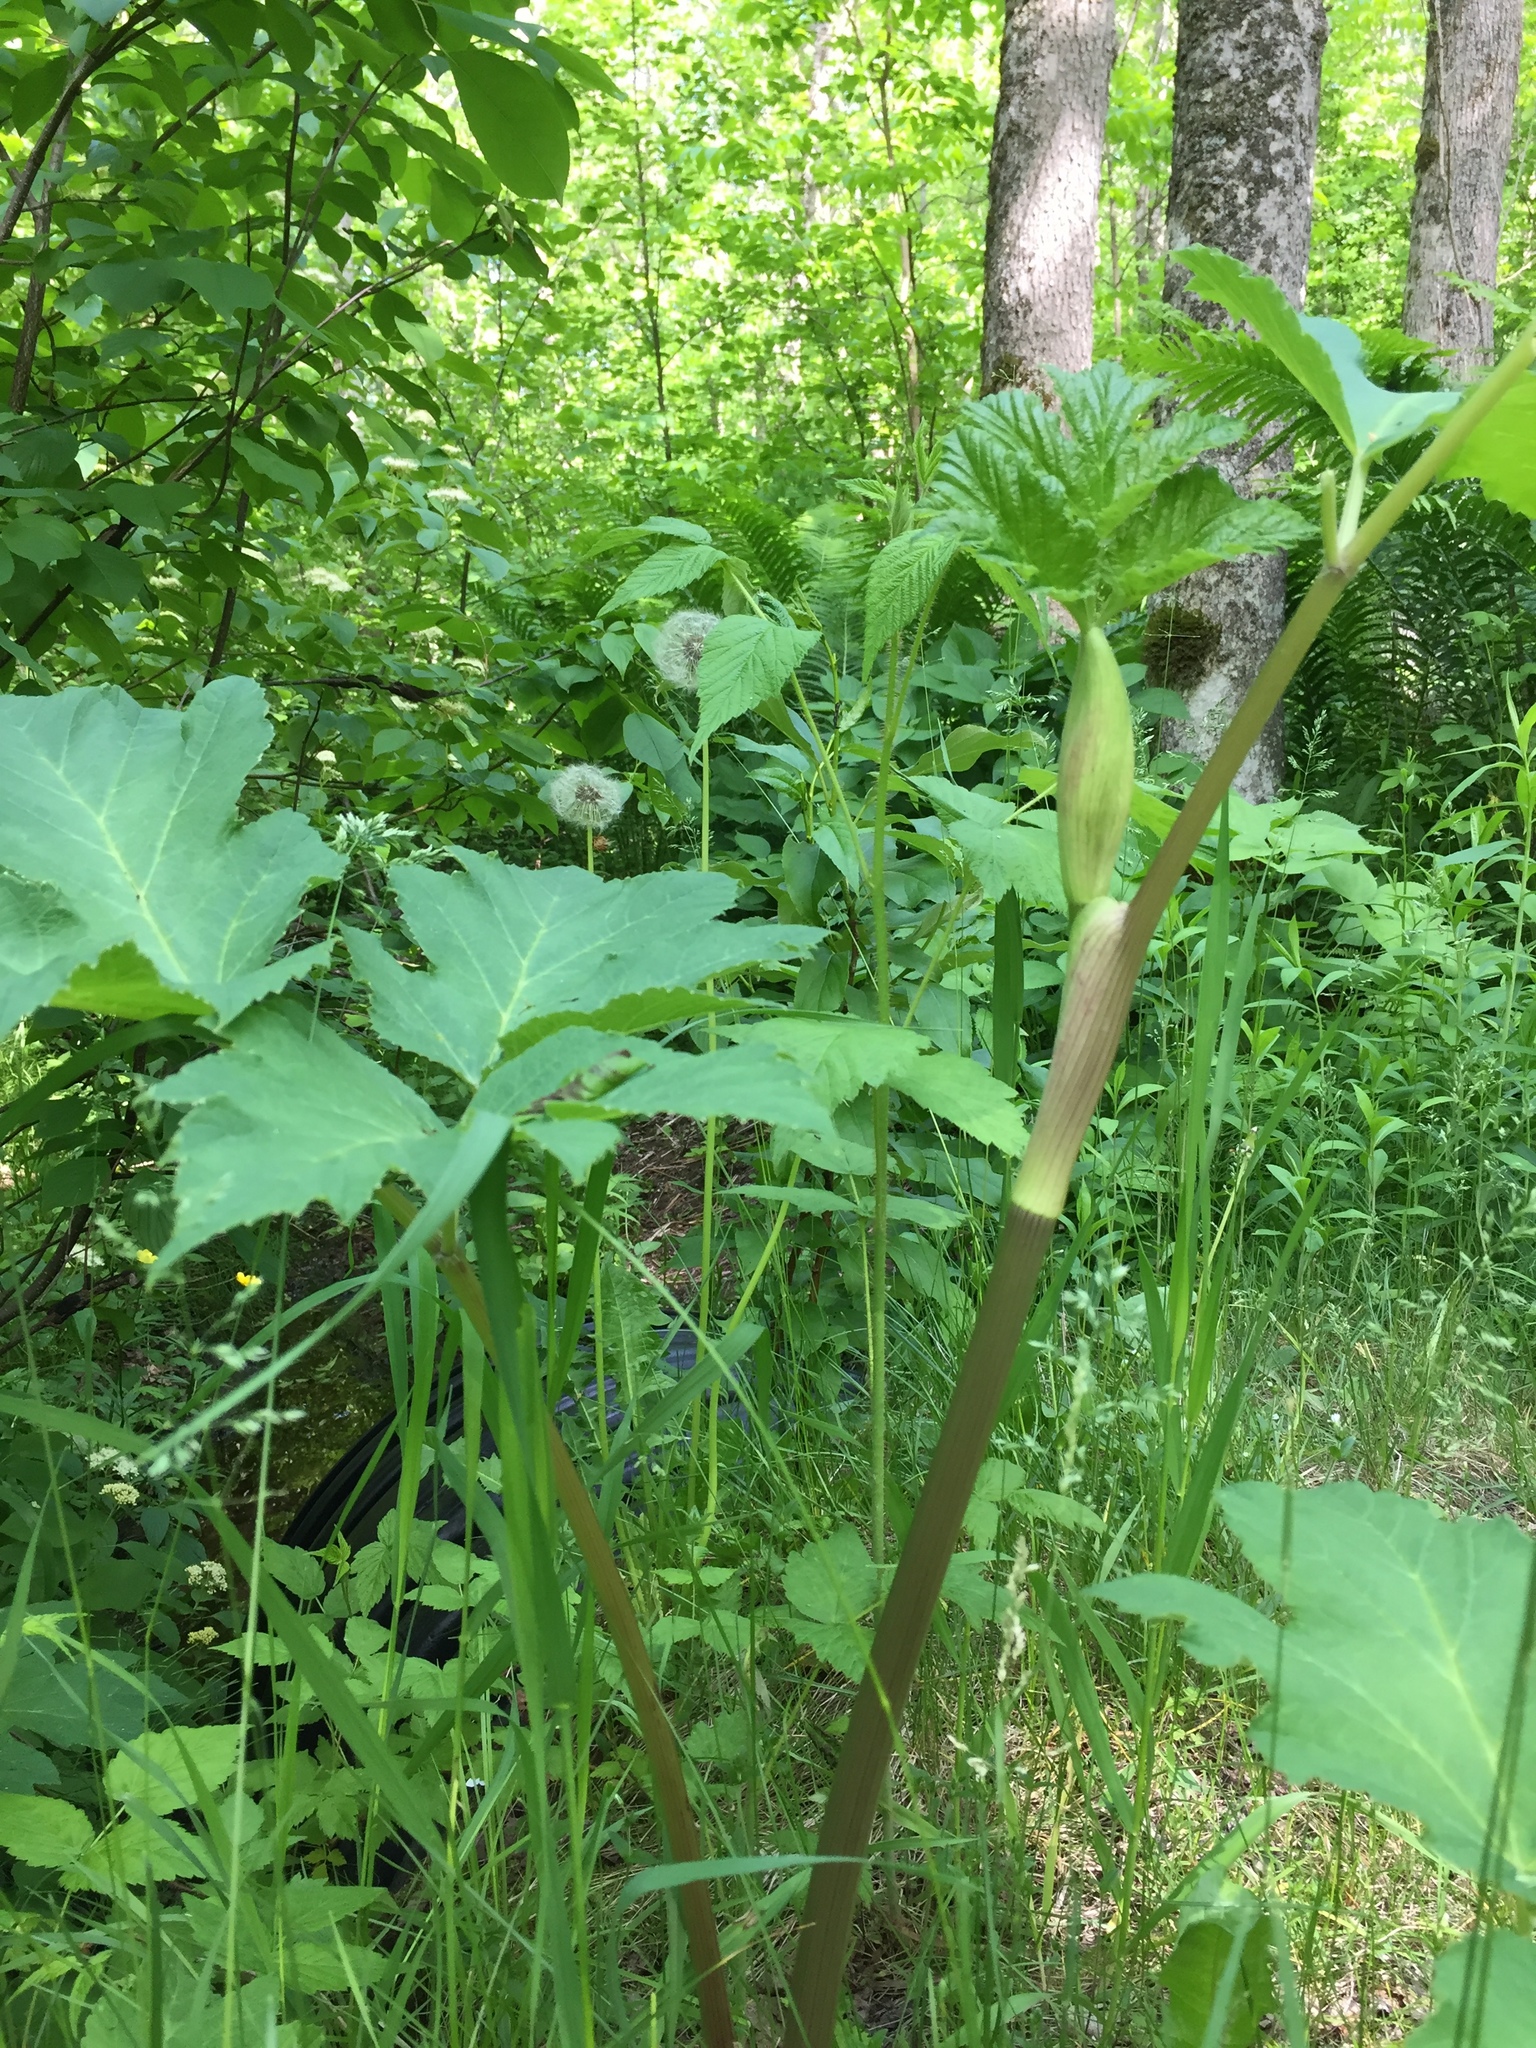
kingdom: Plantae
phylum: Tracheophyta
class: Magnoliopsida
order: Apiales
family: Apiaceae
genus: Heracleum
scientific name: Heracleum maximum
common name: American cow parsnip
